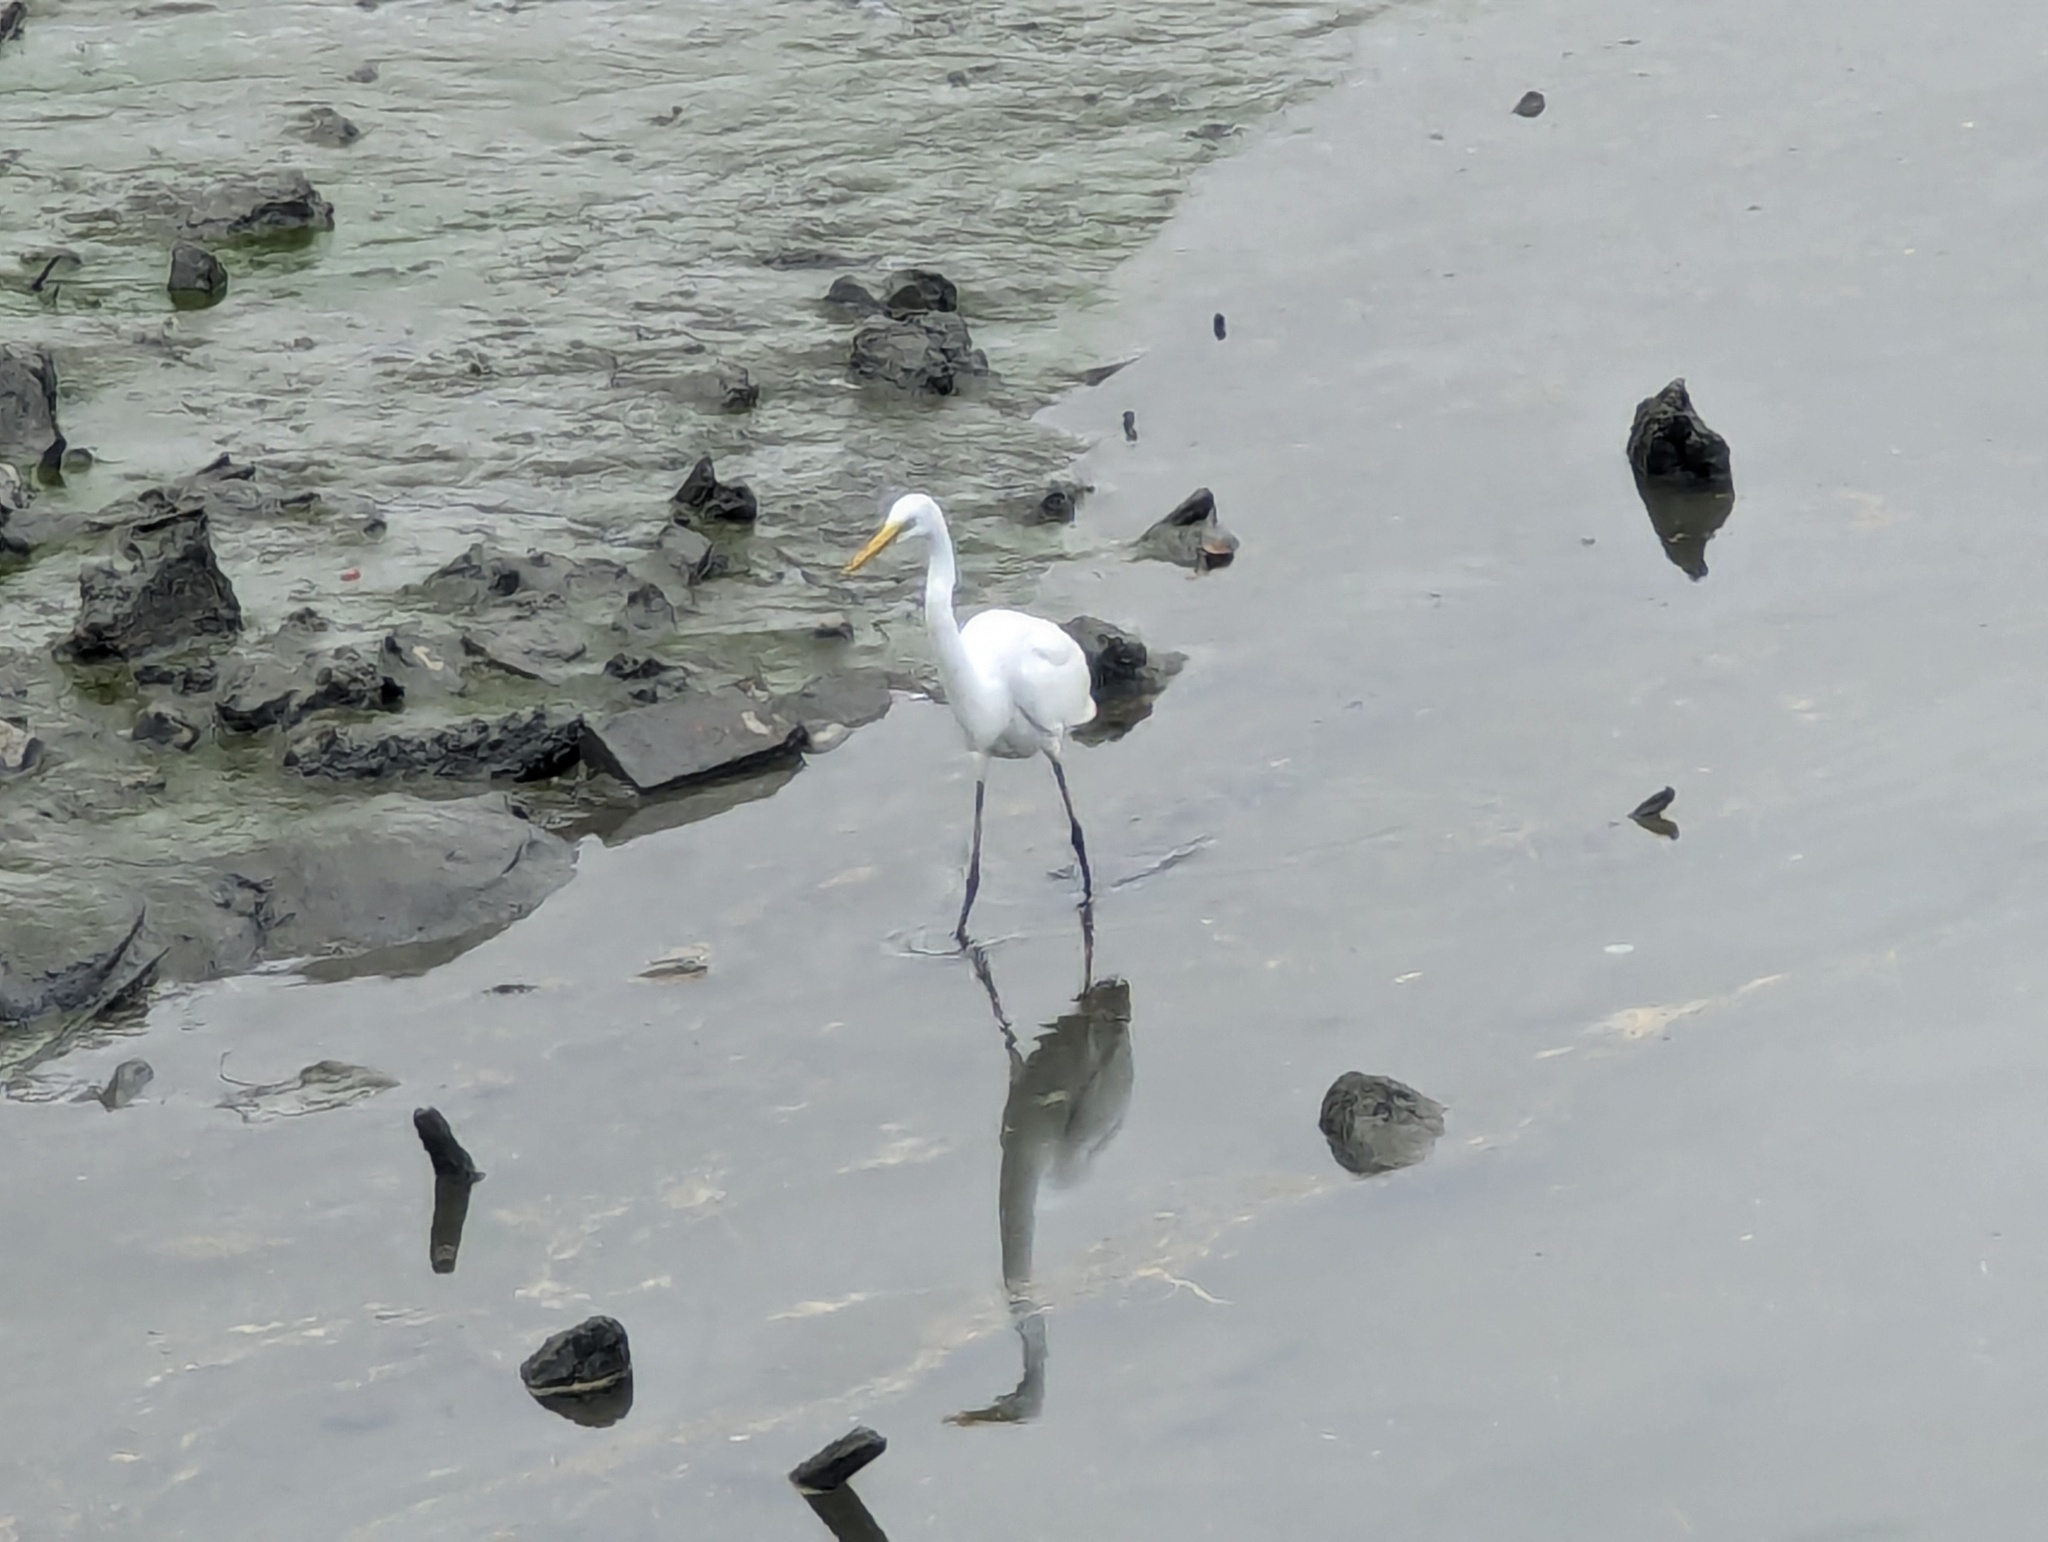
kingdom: Animalia
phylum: Chordata
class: Aves
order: Pelecaniformes
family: Ardeidae
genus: Ardea
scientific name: Ardea alba
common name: Great egret
